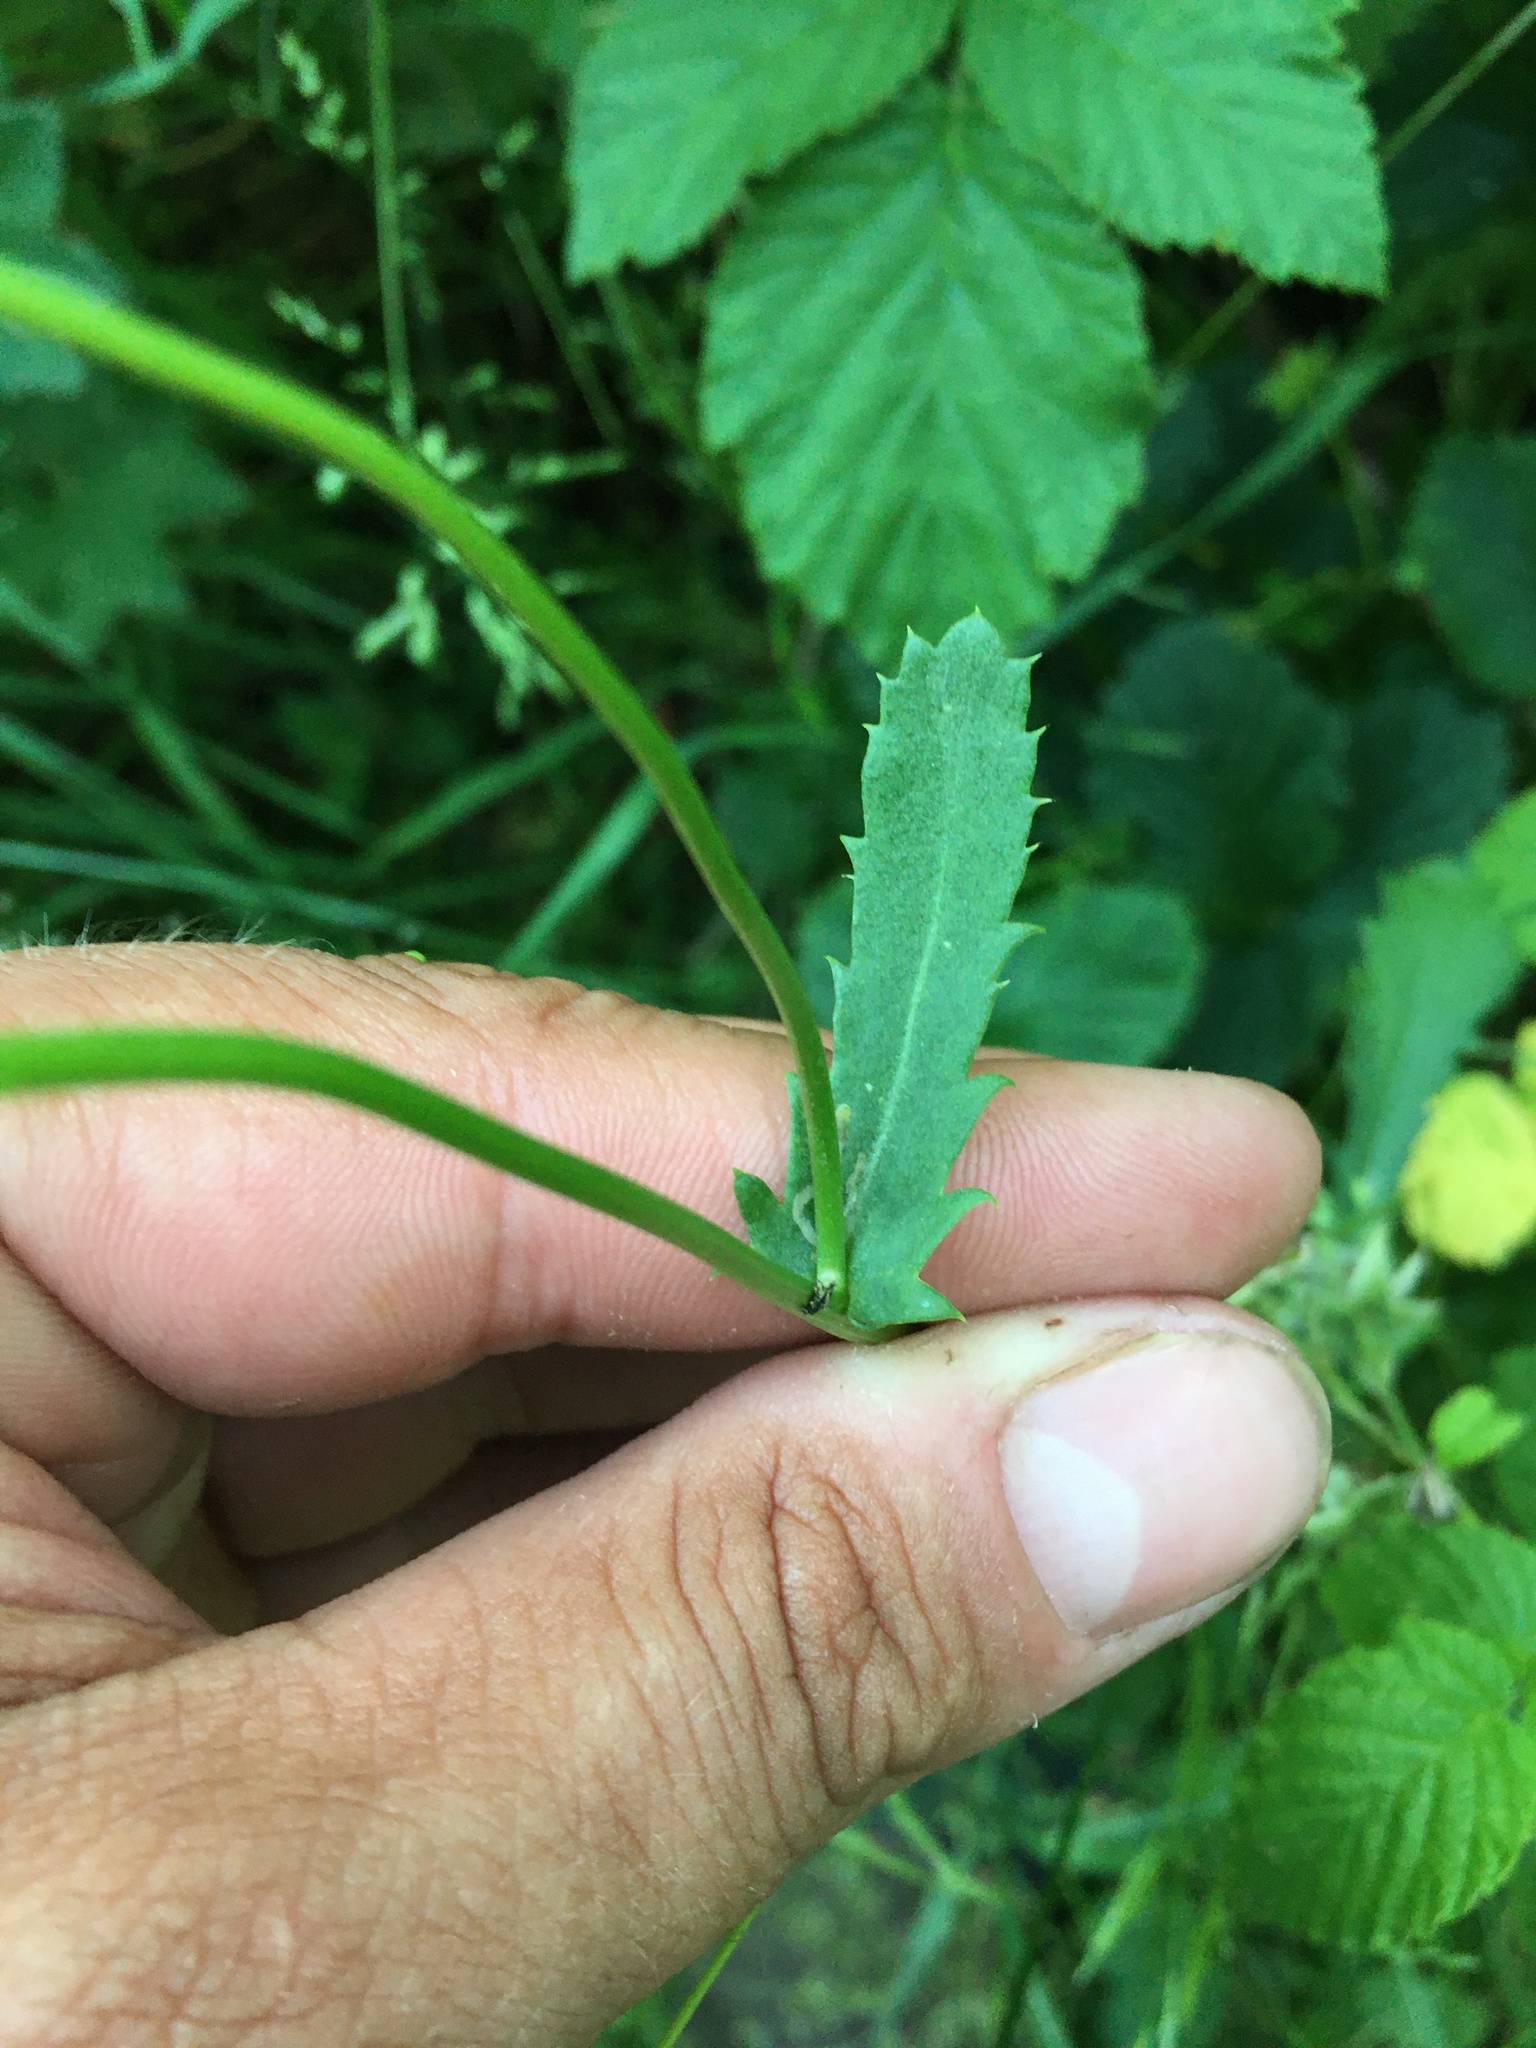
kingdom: Plantae
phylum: Tracheophyta
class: Magnoliopsida
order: Asterales
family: Asteraceae
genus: Leucanthemum
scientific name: Leucanthemum vulgare
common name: Oxeye daisy
